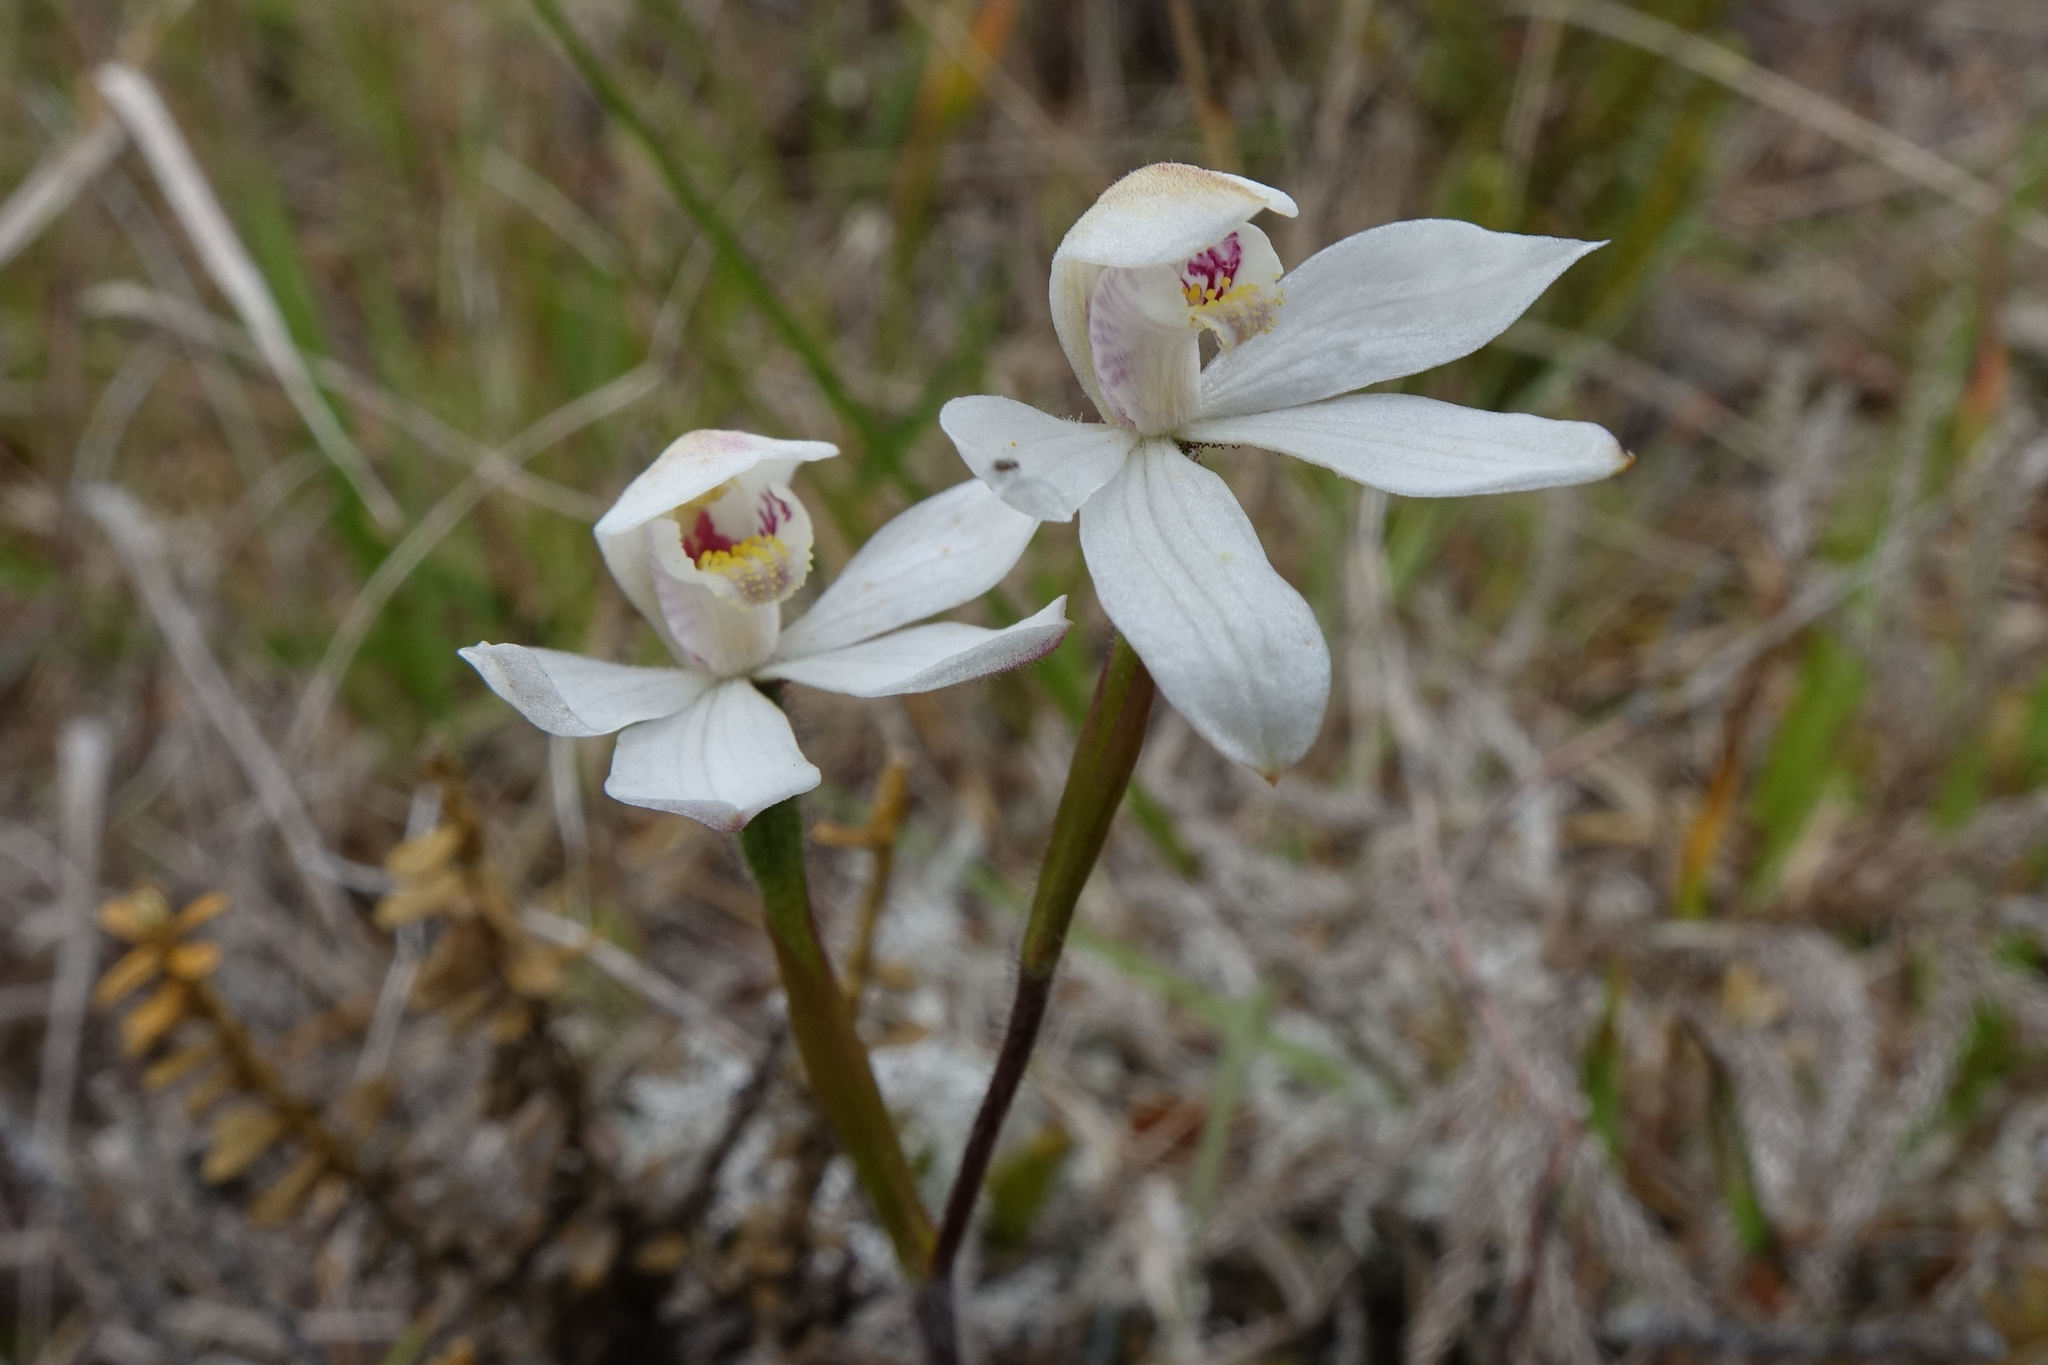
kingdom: Plantae
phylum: Tracheophyta
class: Liliopsida
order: Asparagales
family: Orchidaceae
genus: Caladenia
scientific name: Caladenia lyallii
